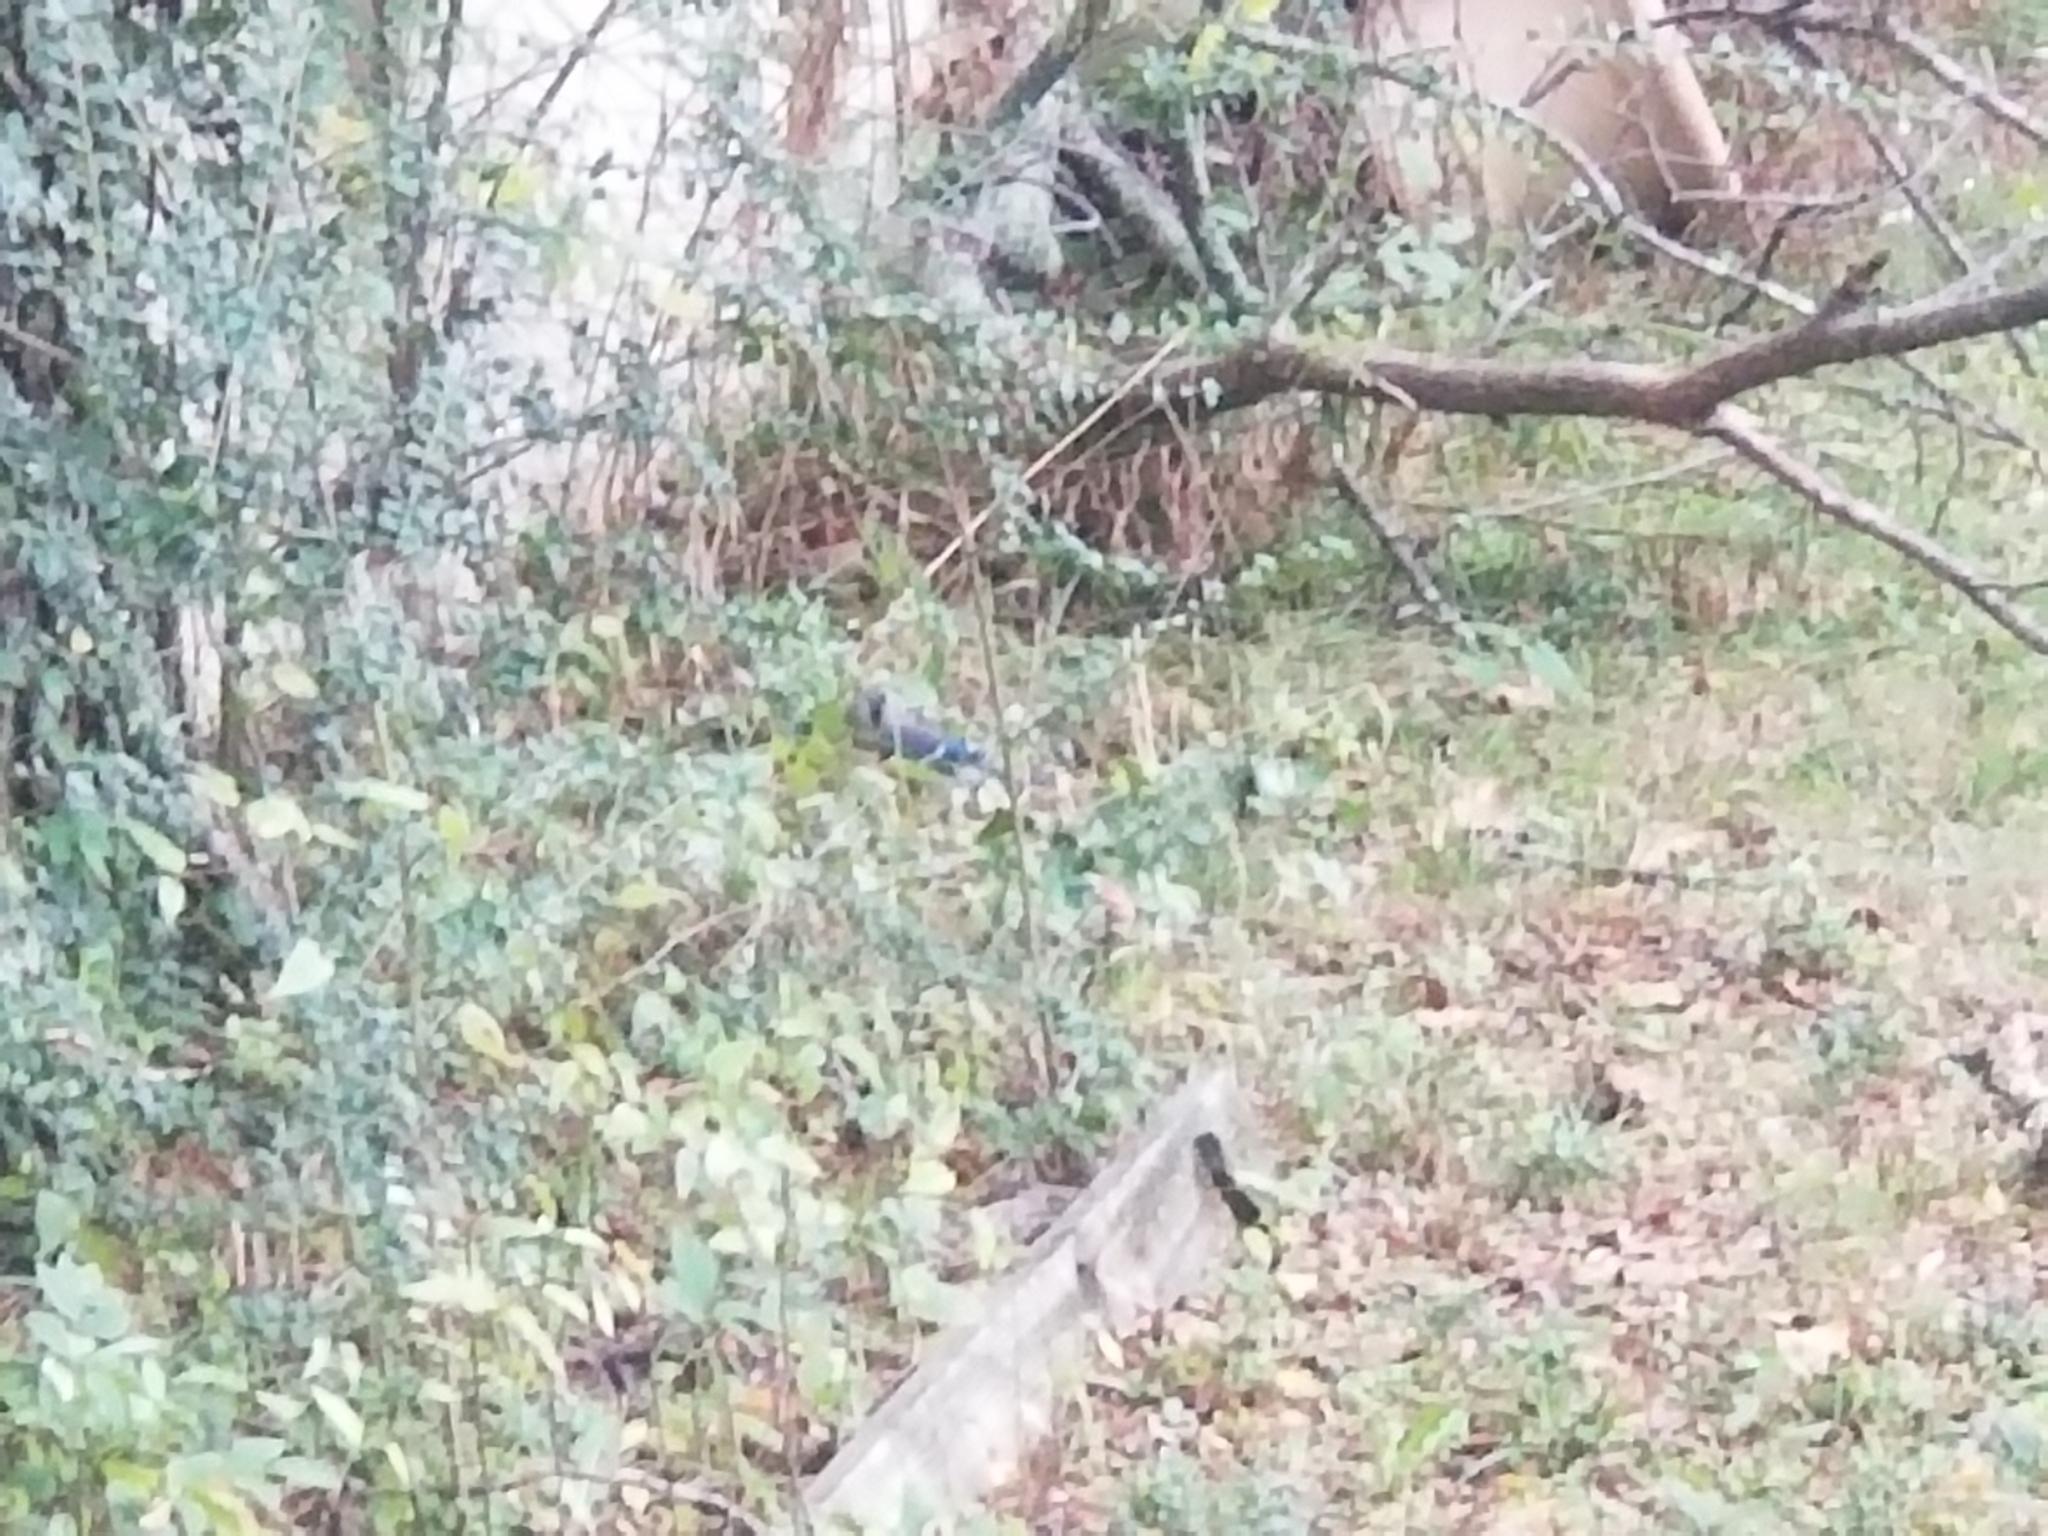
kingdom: Animalia
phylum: Chordata
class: Aves
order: Passeriformes
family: Corvidae
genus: Cyanocitta
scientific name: Cyanocitta cristata
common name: Blue jay
